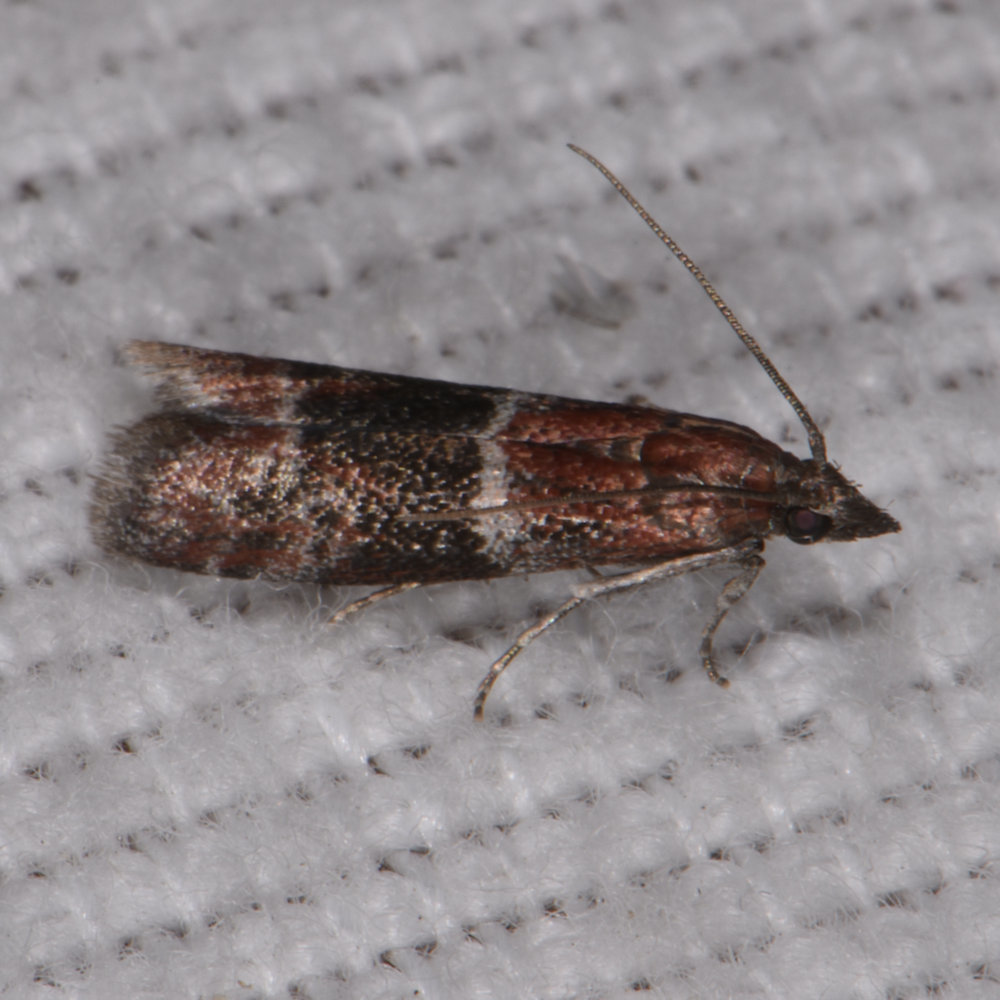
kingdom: Animalia
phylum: Arthropoda
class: Insecta
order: Lepidoptera
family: Pyralidae
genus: Moodna
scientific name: Moodna ostrinella
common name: Darker moodna moth
